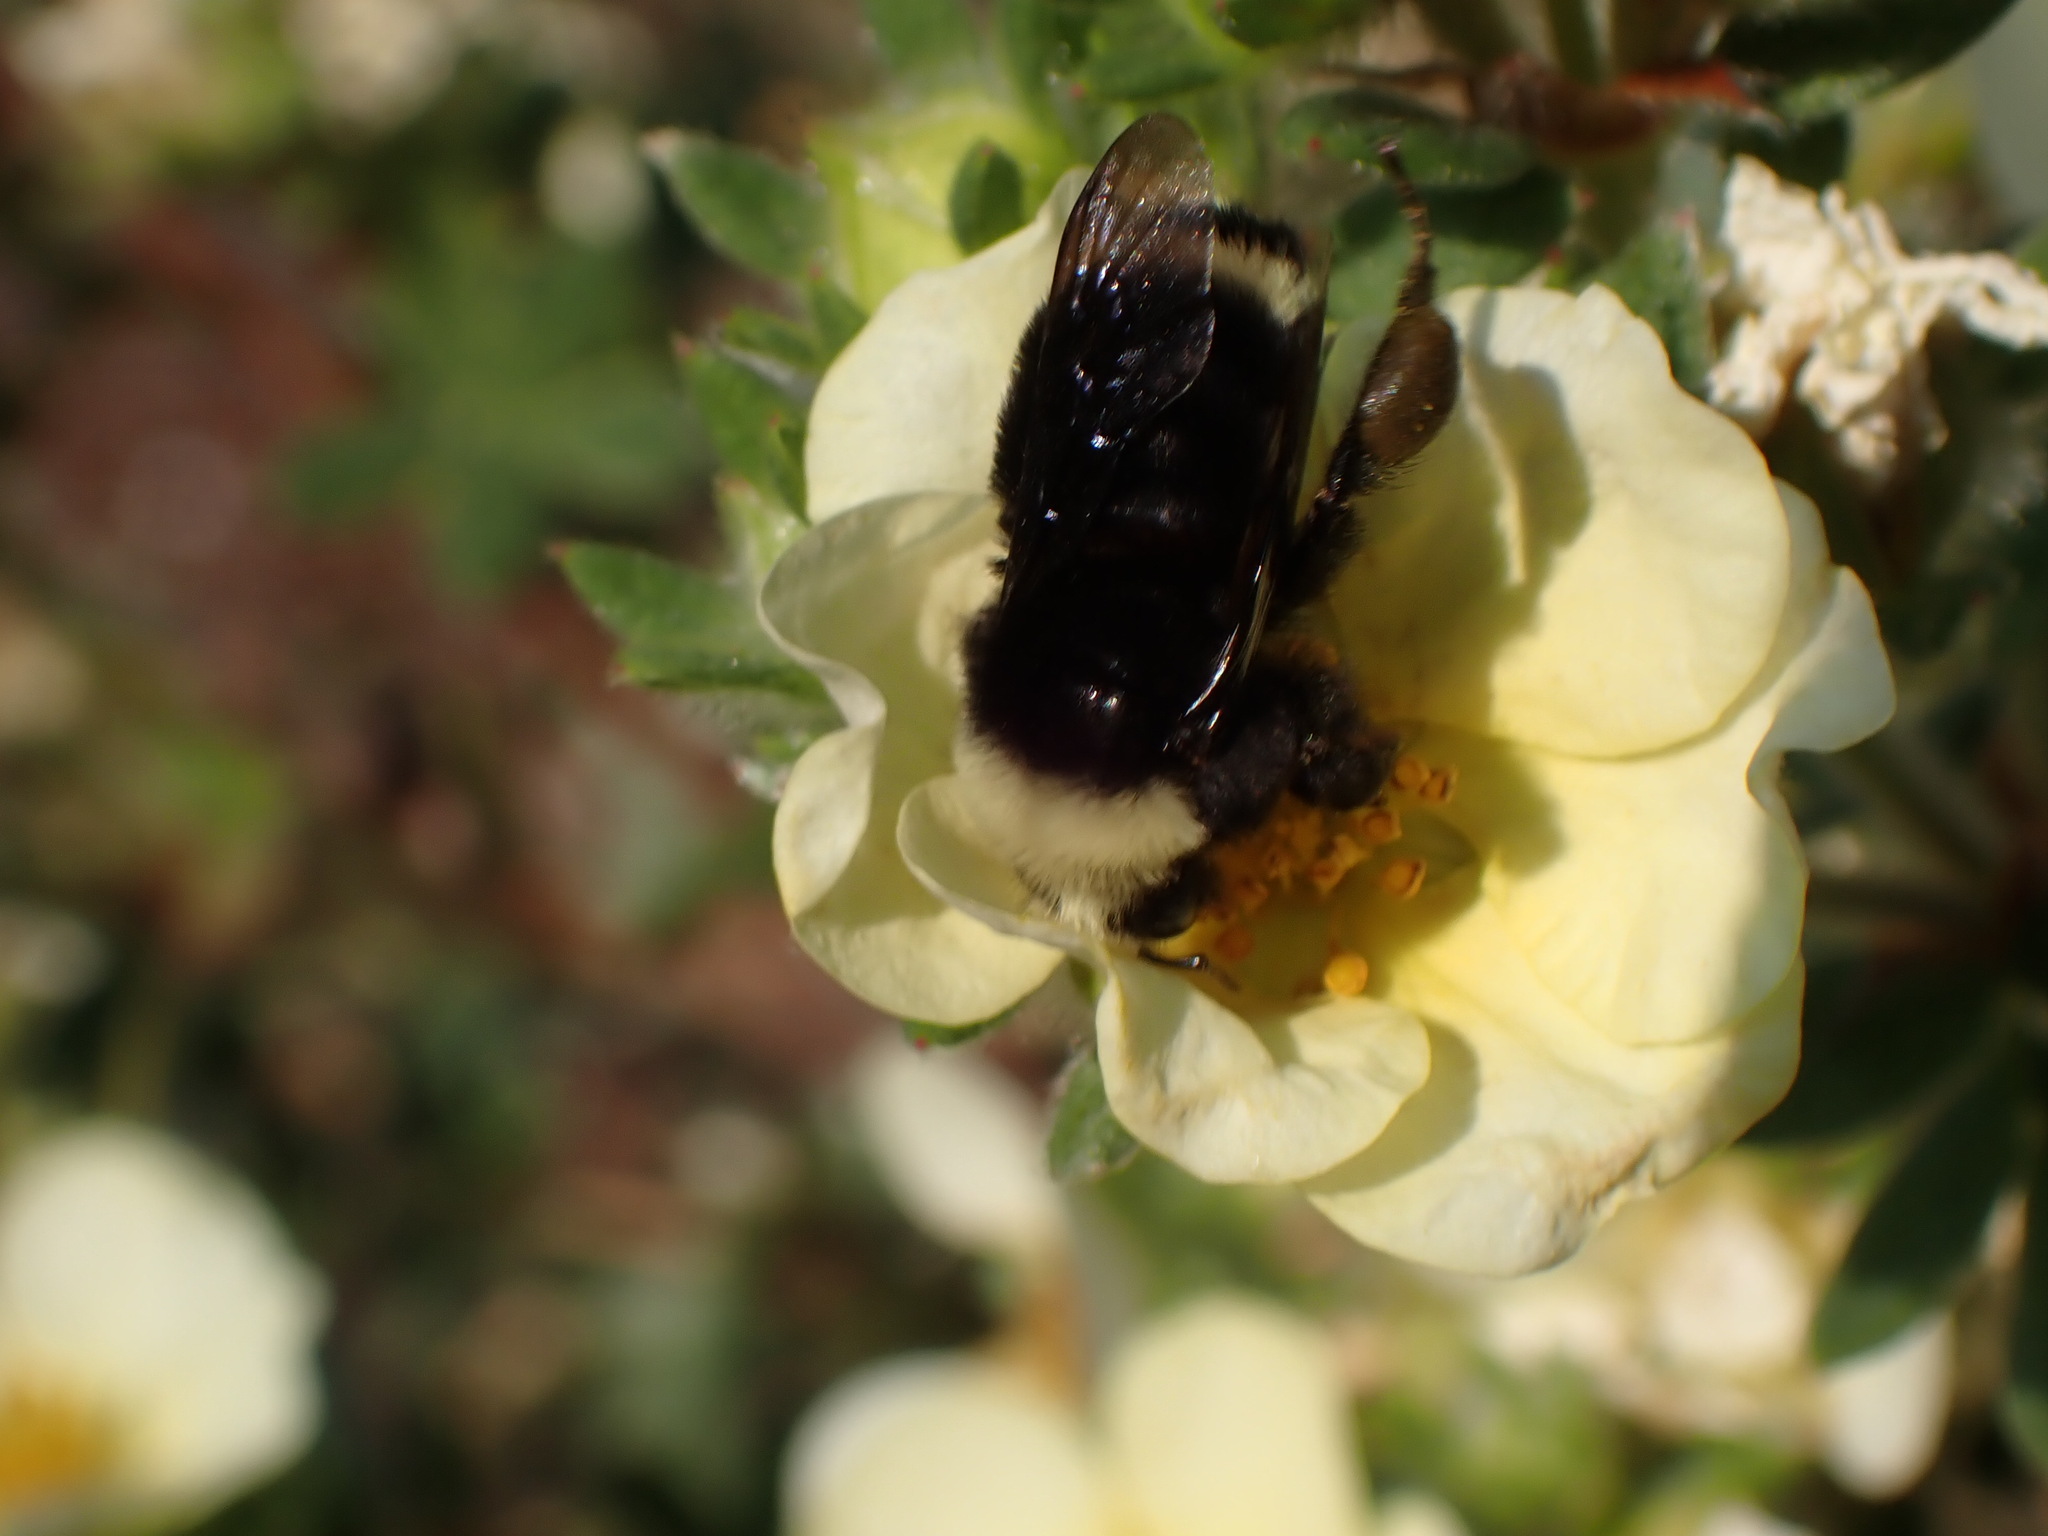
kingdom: Animalia
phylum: Arthropoda
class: Insecta
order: Hymenoptera
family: Apidae
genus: Bombus
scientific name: Bombus vosnesenskii
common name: Vosnesensky bumble bee
